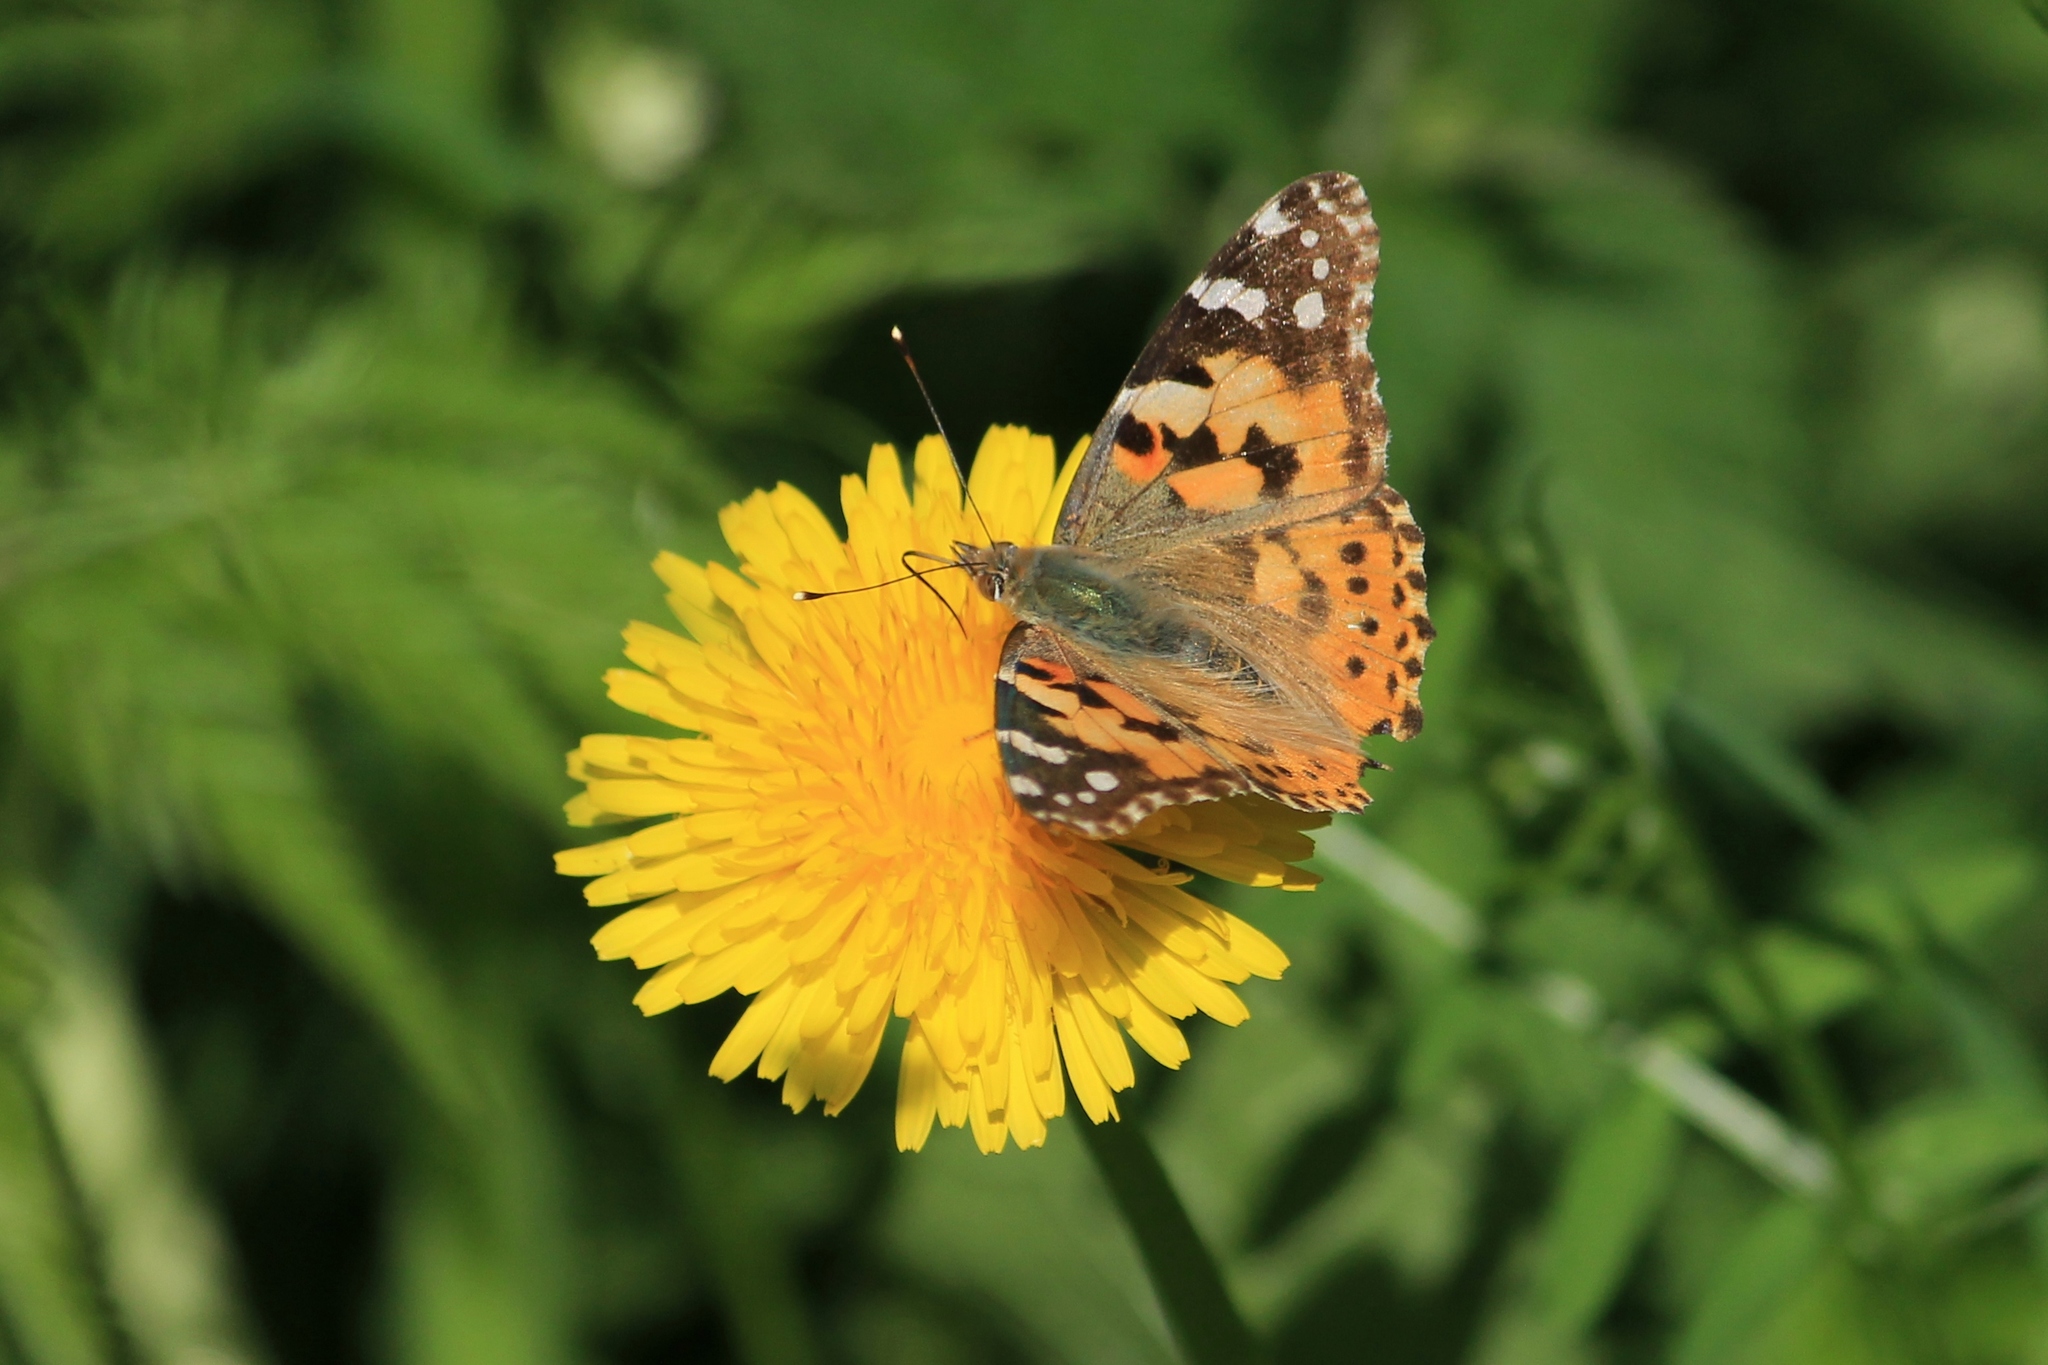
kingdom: Animalia
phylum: Arthropoda
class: Insecta
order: Lepidoptera
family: Nymphalidae
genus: Vanessa
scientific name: Vanessa cardui
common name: Painted lady
